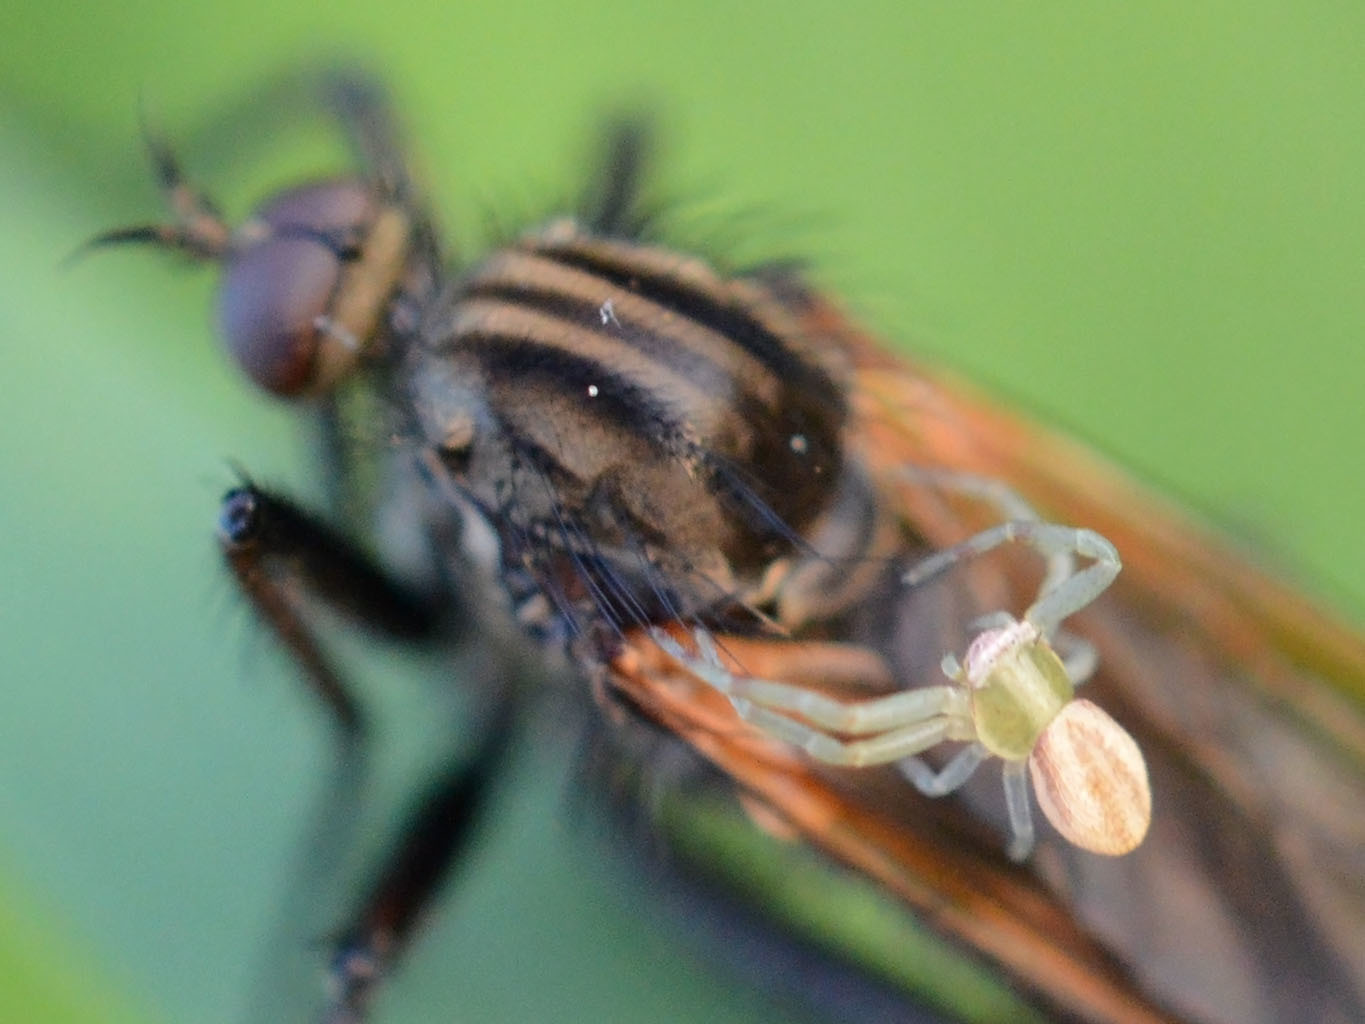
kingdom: Animalia
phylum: Arthropoda
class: Arachnida
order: Araneae
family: Thomisidae
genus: Runcinia
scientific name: Runcinia grammica
